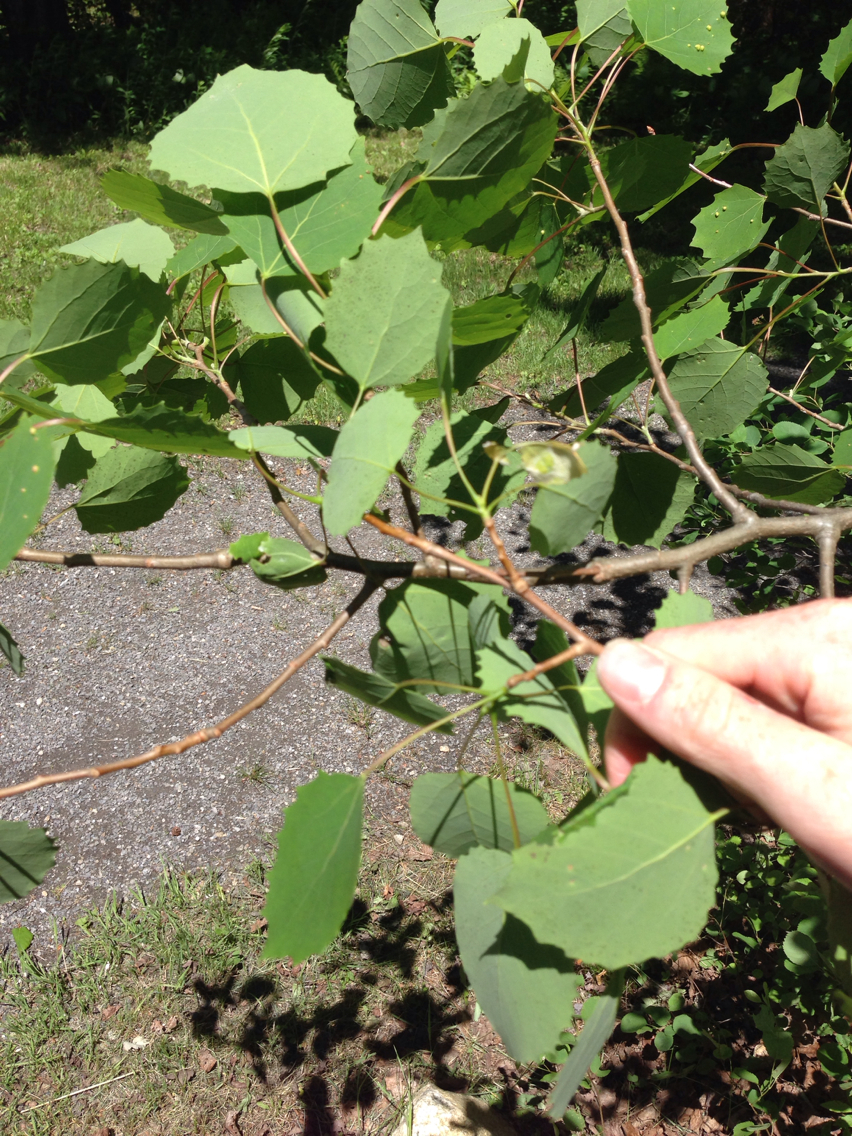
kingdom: Plantae
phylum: Tracheophyta
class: Magnoliopsida
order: Malpighiales
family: Salicaceae
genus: Populus
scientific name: Populus grandidentata
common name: Bigtooth aspen
